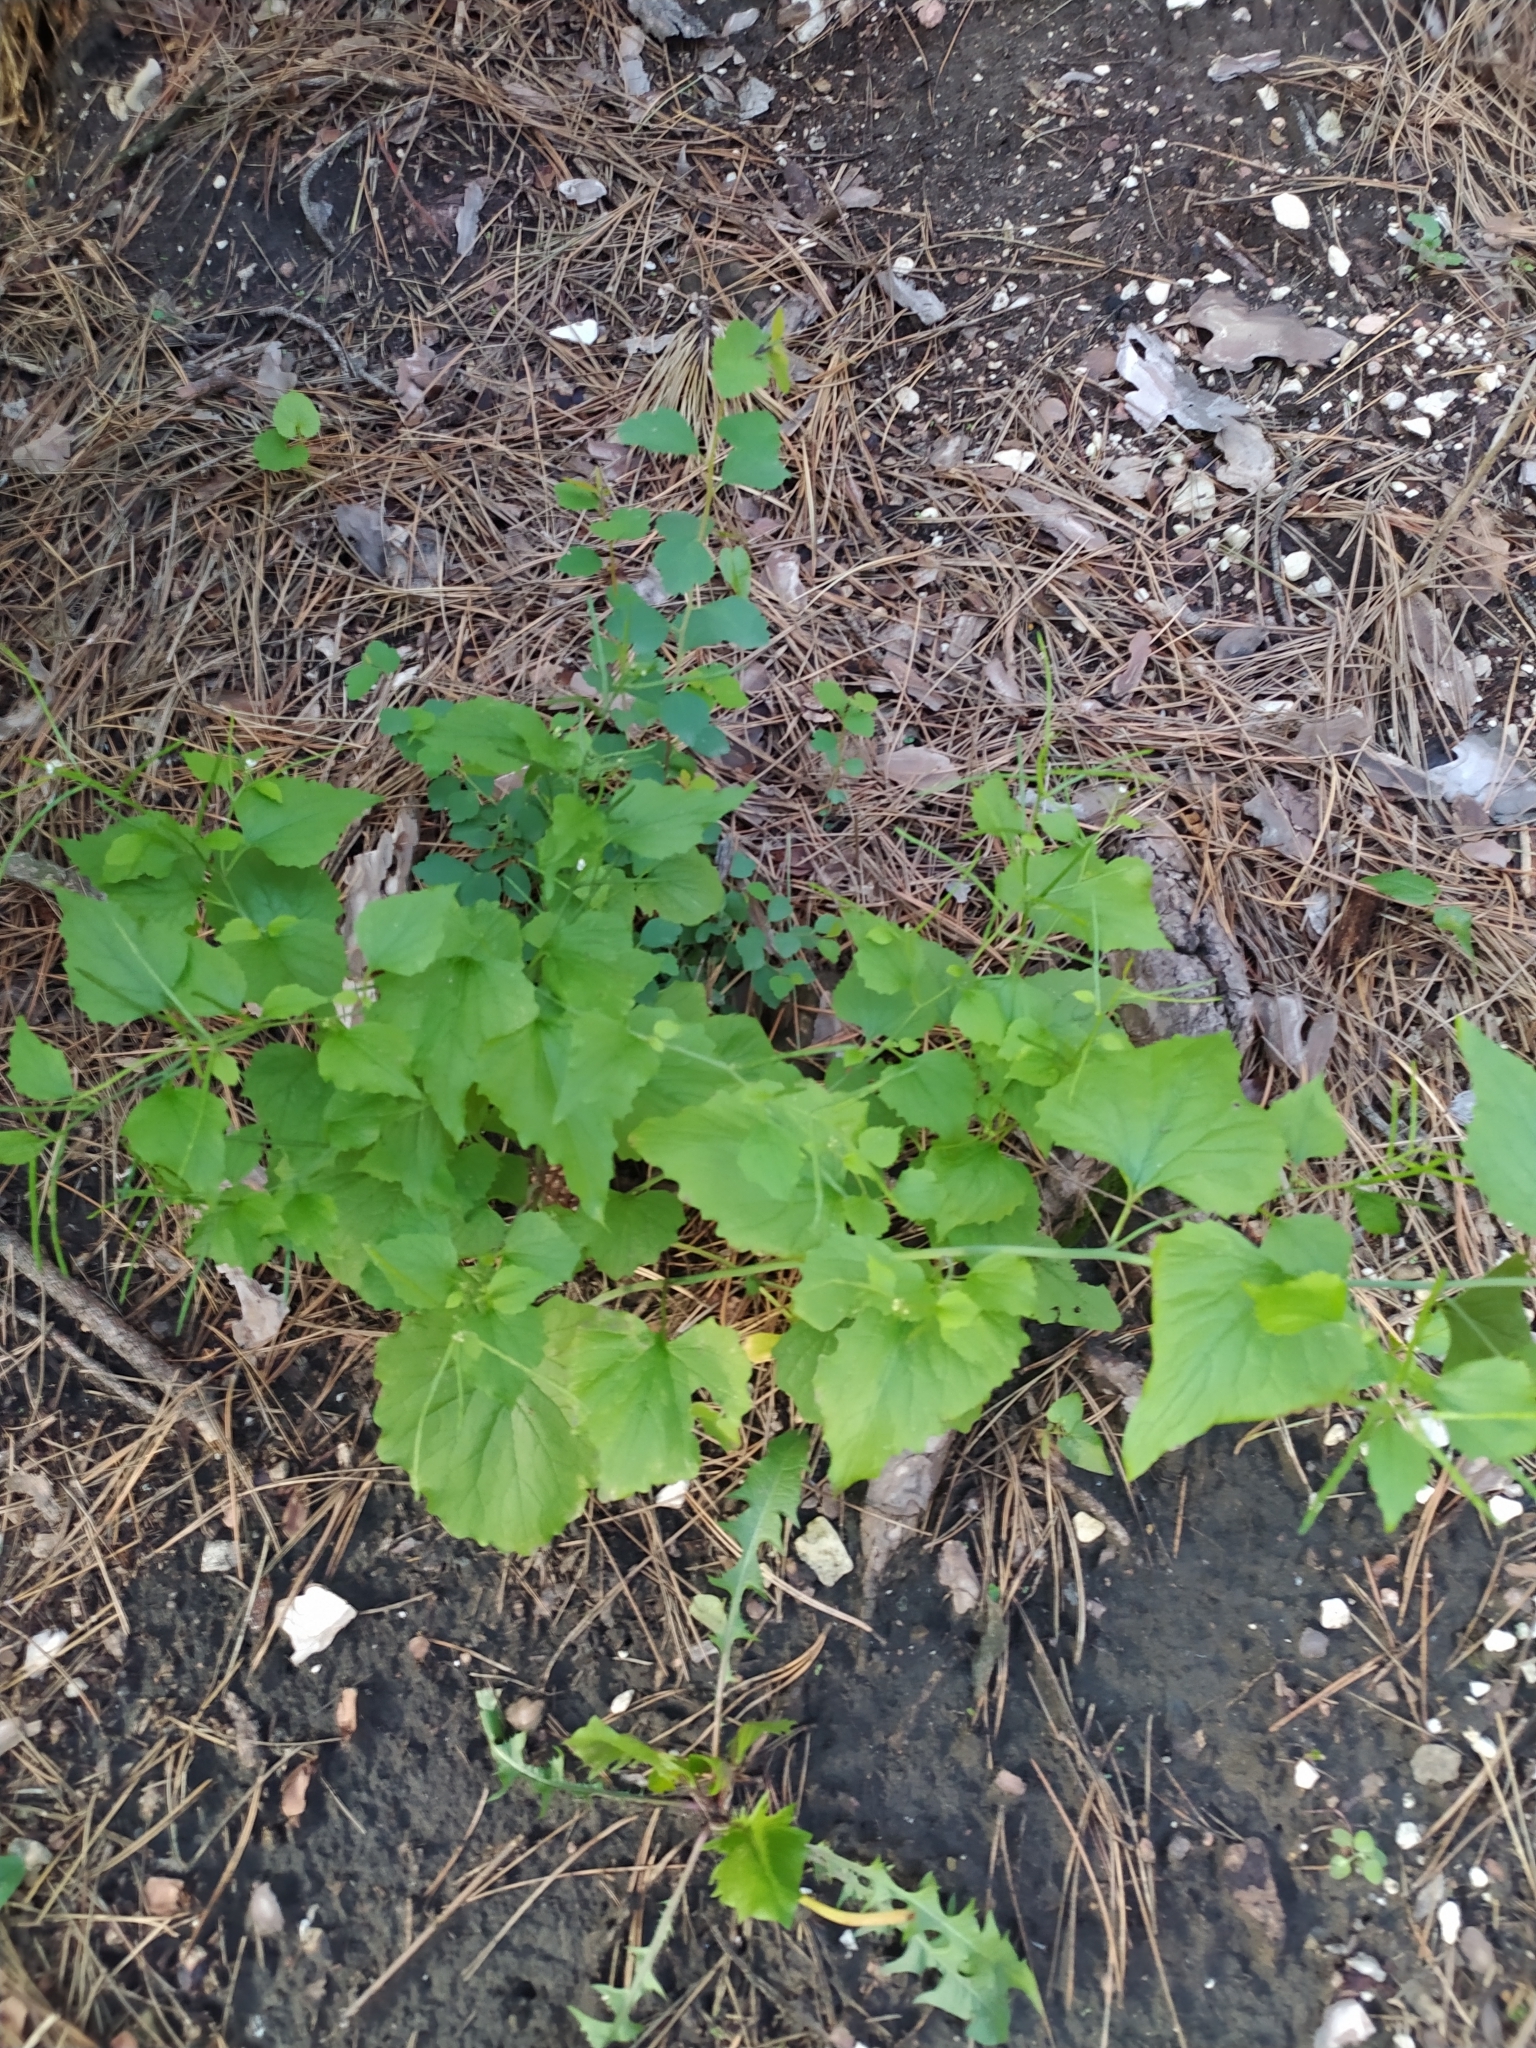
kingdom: Plantae
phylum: Tracheophyta
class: Magnoliopsida
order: Brassicales
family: Brassicaceae
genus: Alliaria
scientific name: Alliaria petiolata
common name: Garlic mustard
